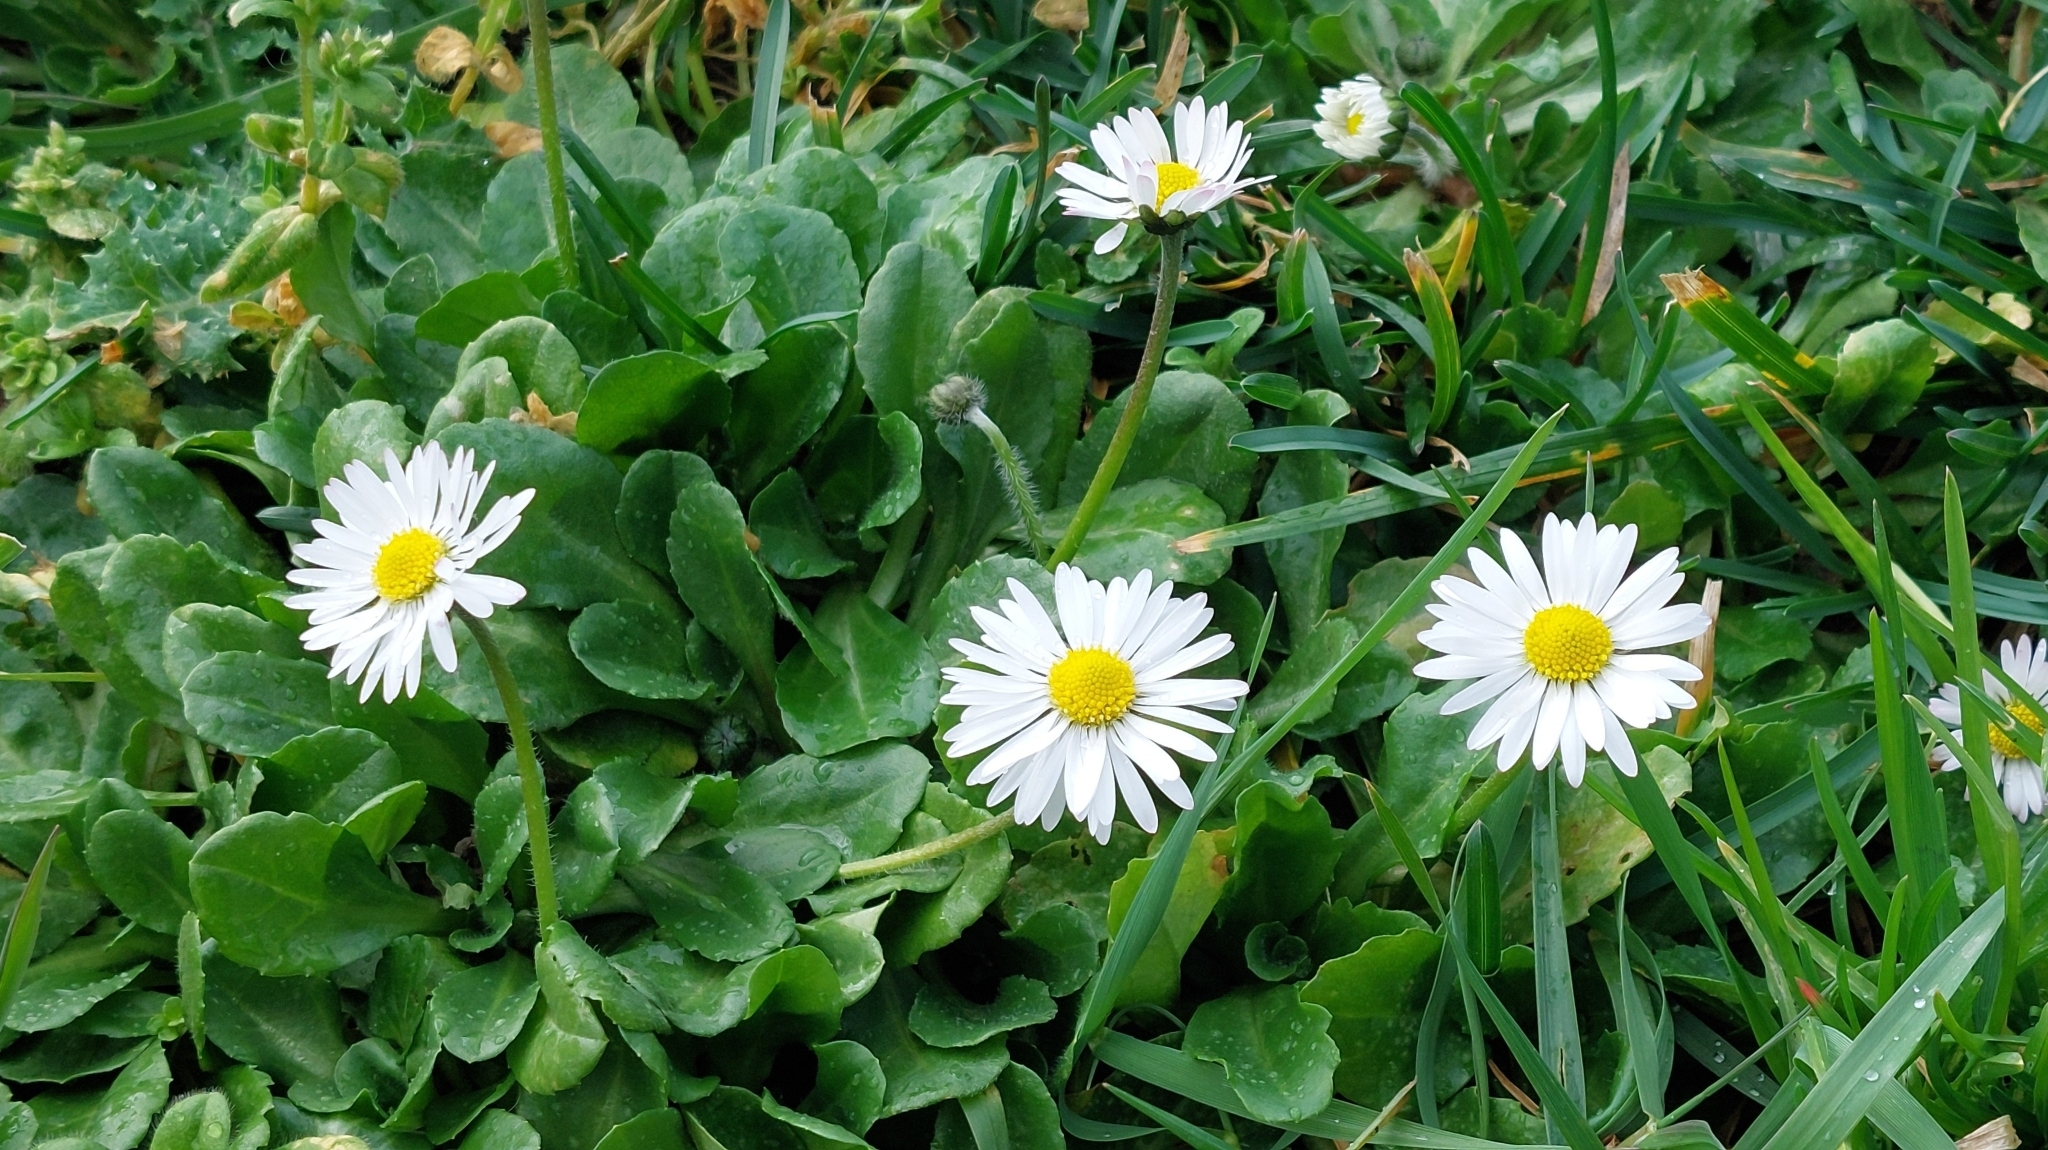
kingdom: Plantae
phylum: Tracheophyta
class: Magnoliopsida
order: Asterales
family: Asteraceae
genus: Bellis
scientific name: Bellis perennis
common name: Lawndaisy
